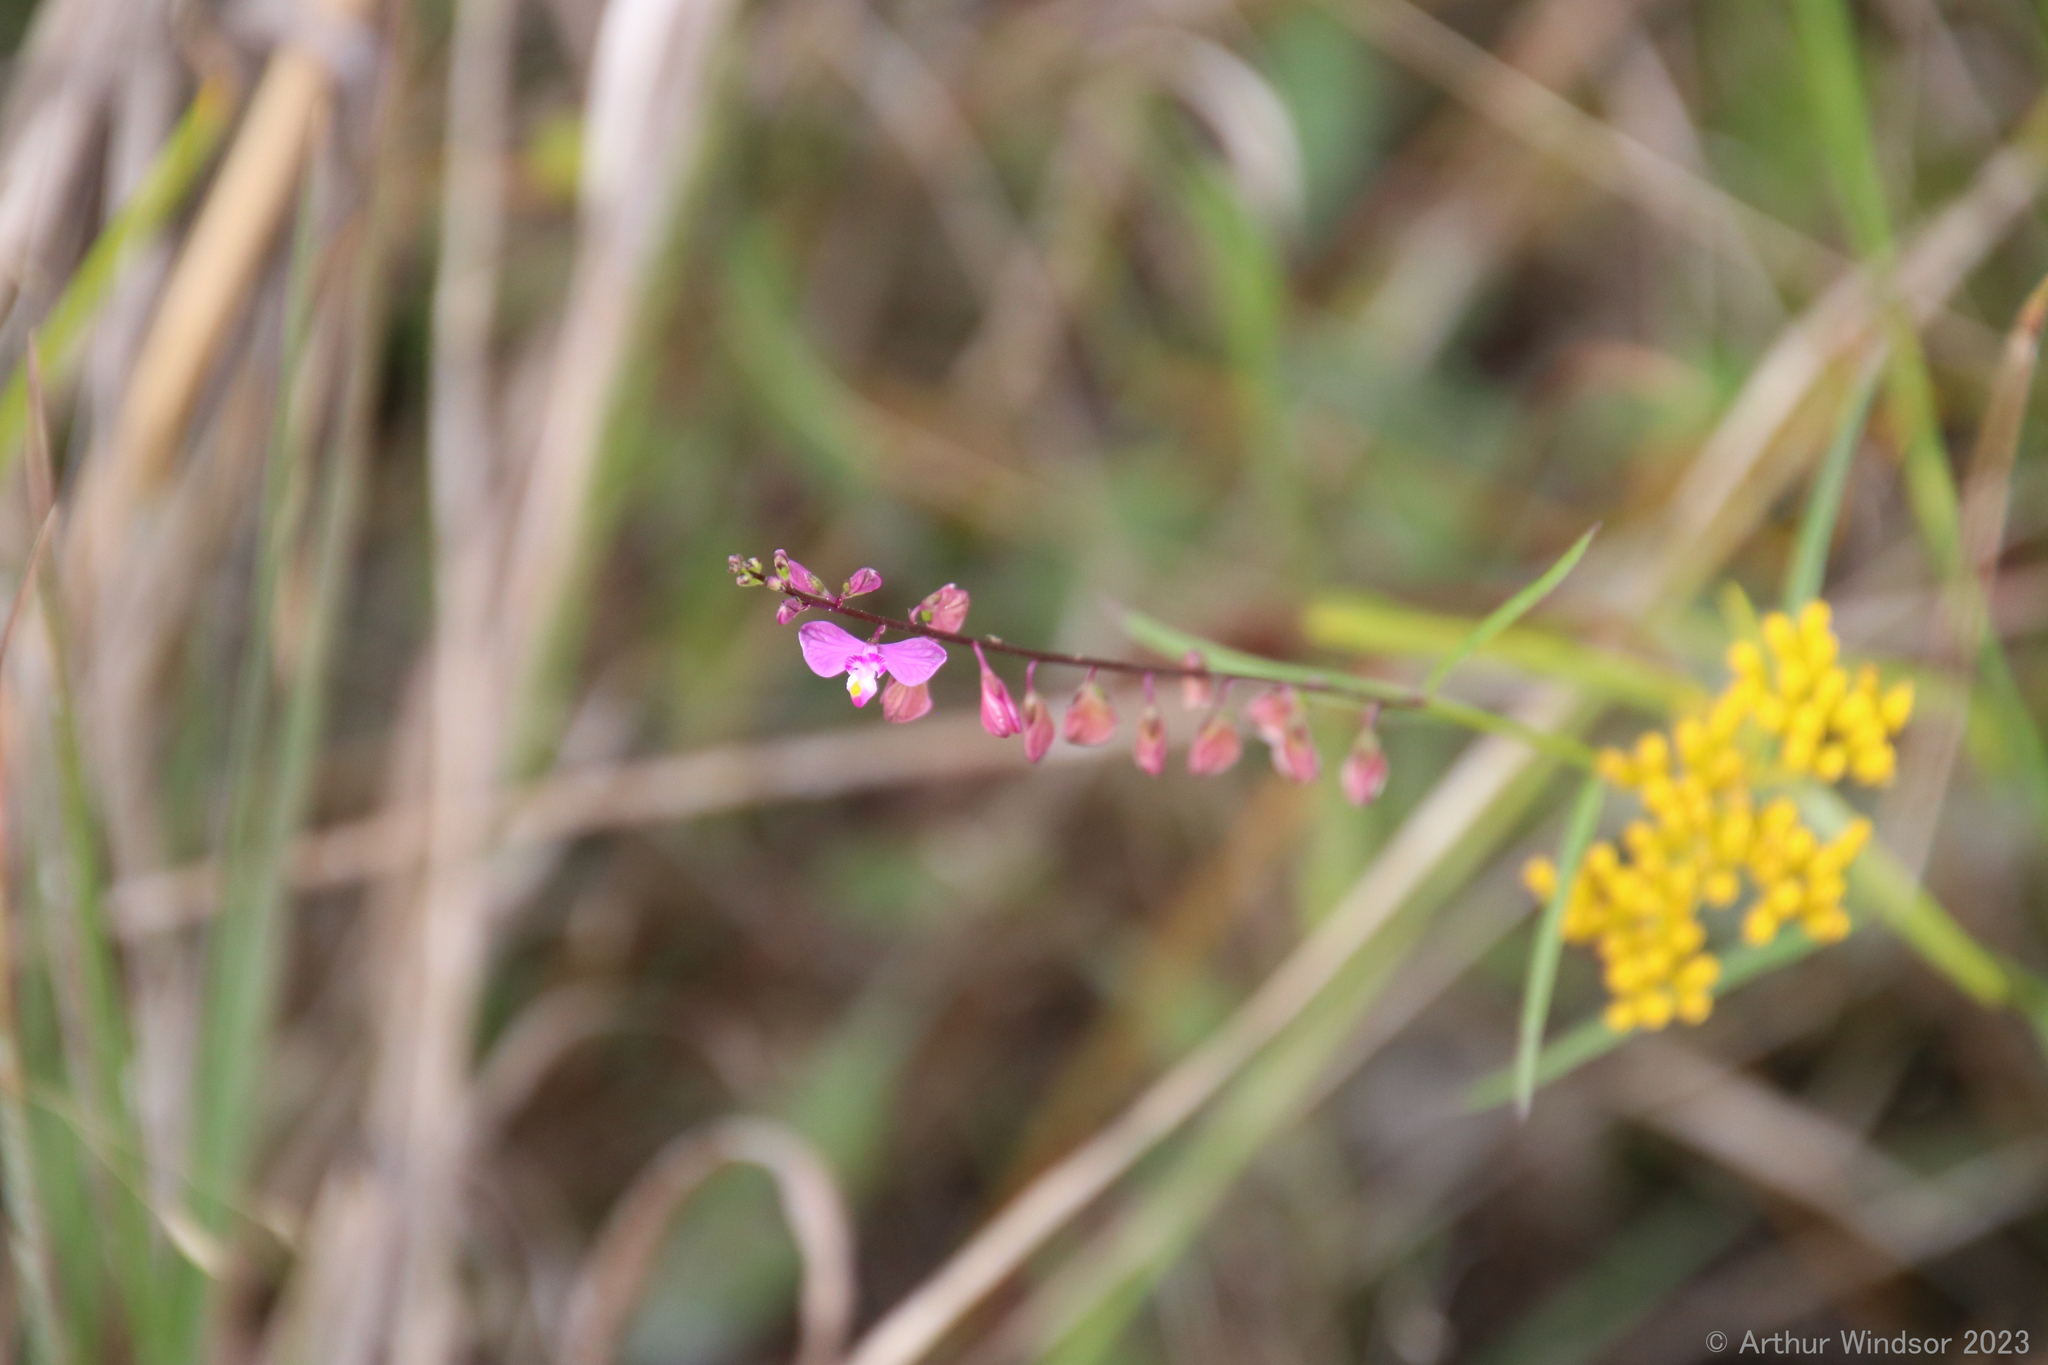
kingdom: Plantae
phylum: Tracheophyta
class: Magnoliopsida
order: Fabales
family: Polygalaceae
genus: Asemeia
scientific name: Asemeia grandiflora
